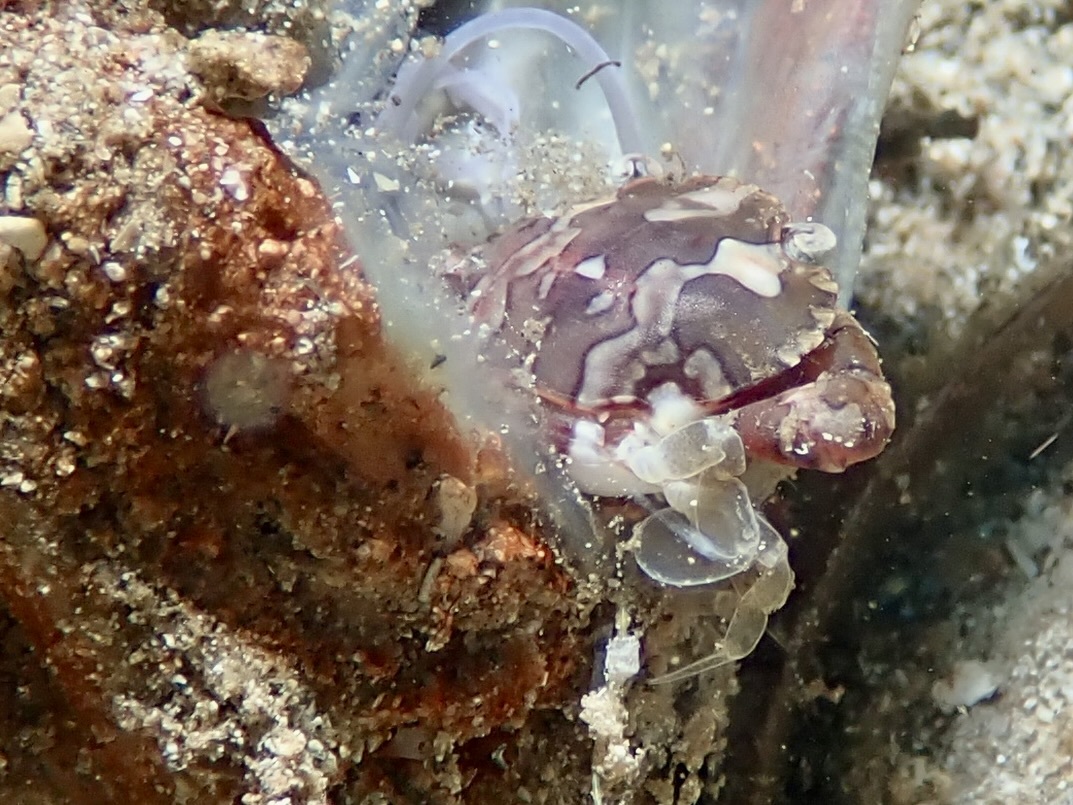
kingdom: Animalia
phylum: Arthropoda
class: Malacostraca
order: Decapoda
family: Portunidae
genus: Lissocarcinus
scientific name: Lissocarcinus laevis
